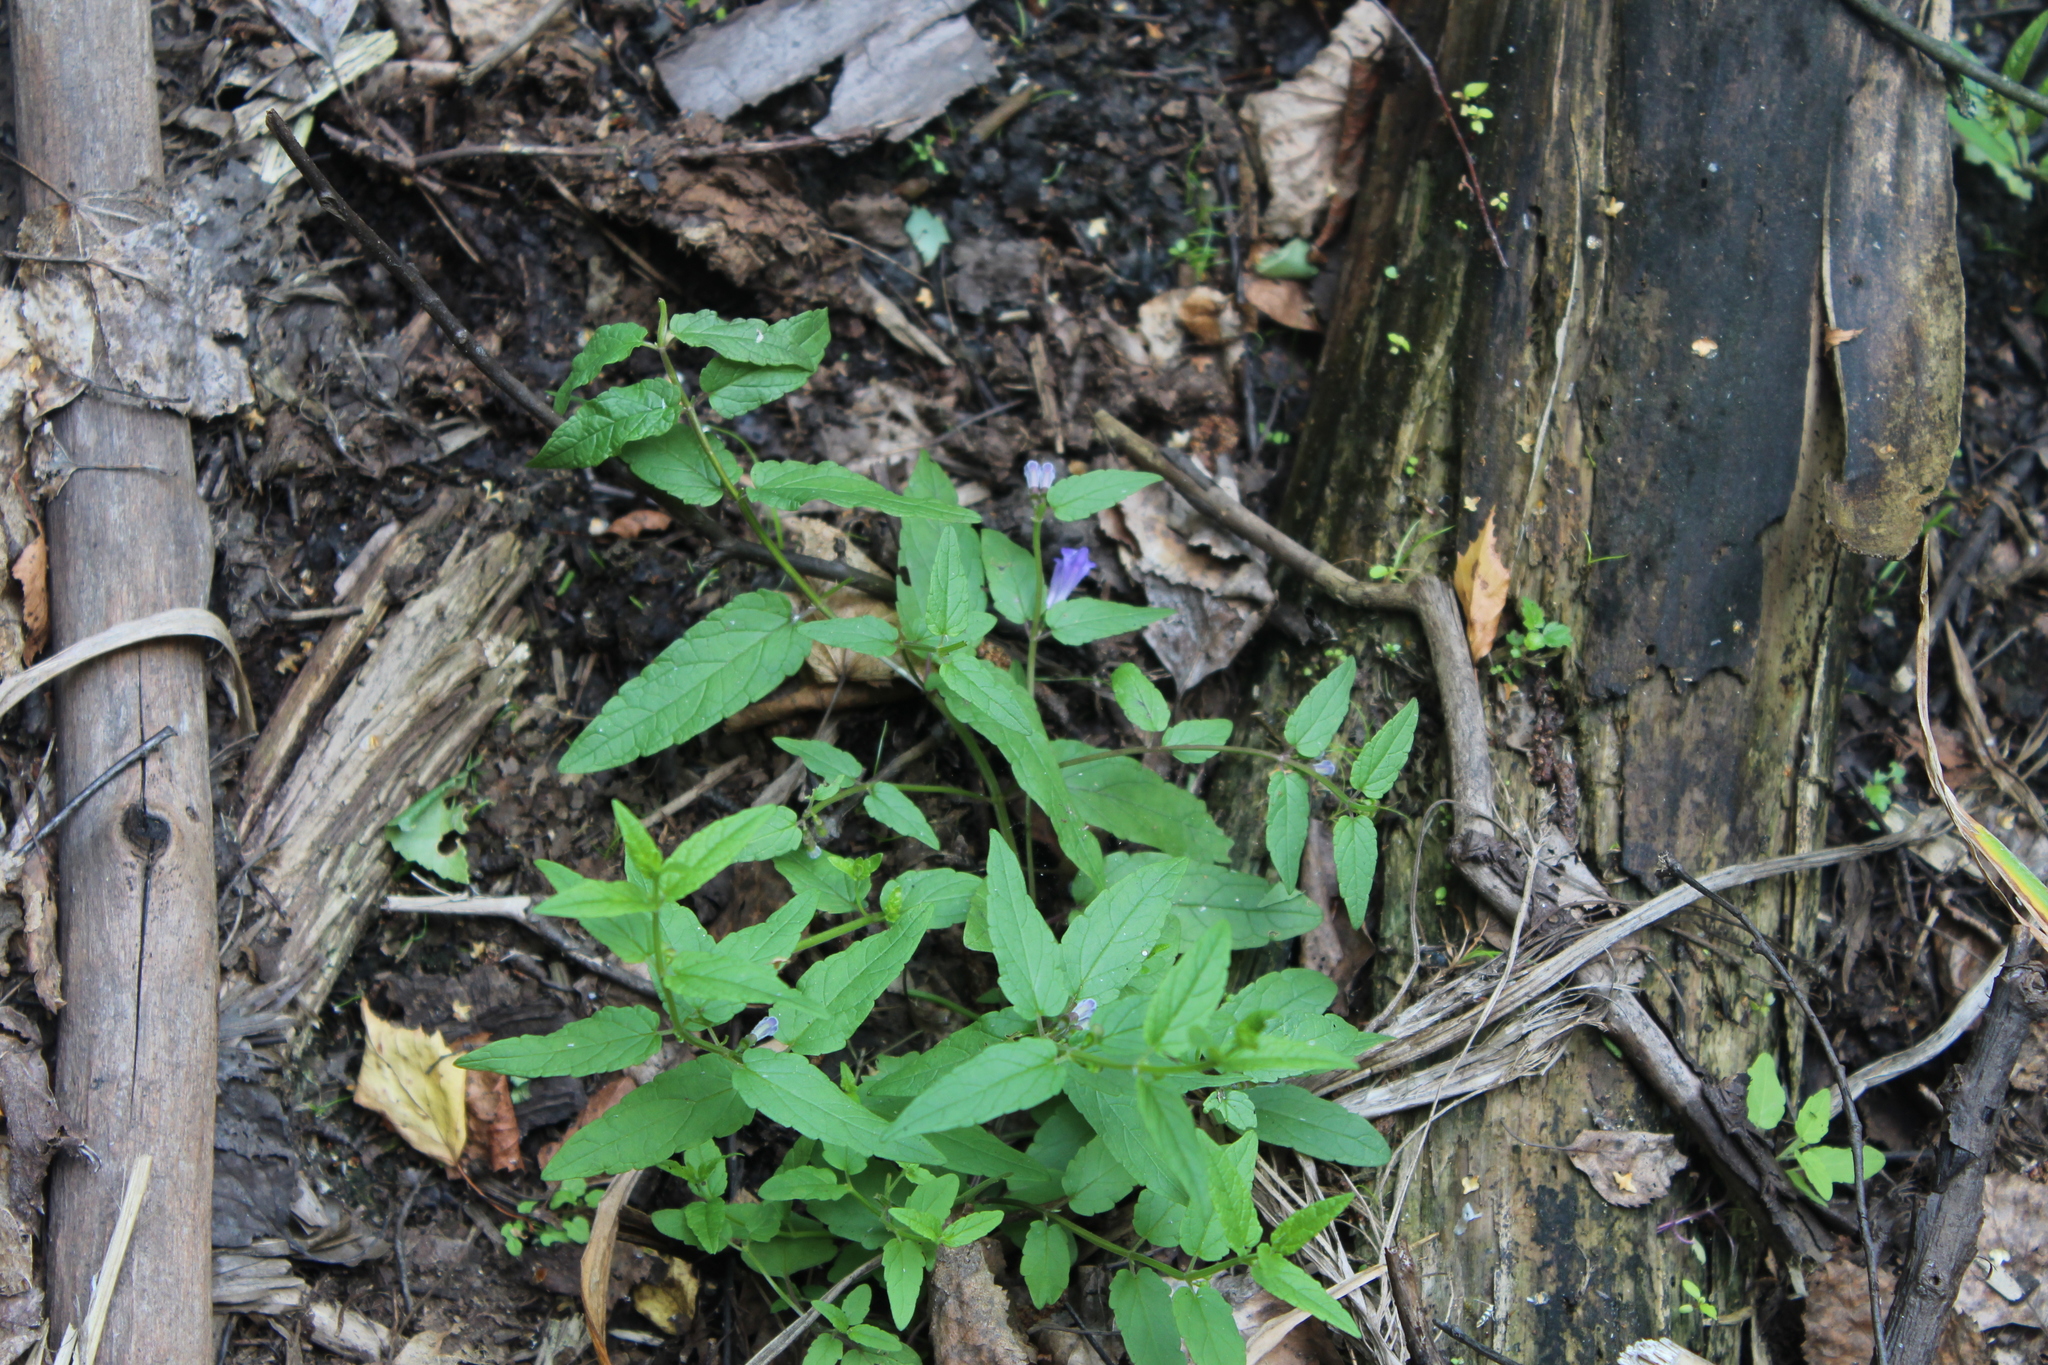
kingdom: Plantae
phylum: Tracheophyta
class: Magnoliopsida
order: Lamiales
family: Lamiaceae
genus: Scutellaria
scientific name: Scutellaria galericulata
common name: Skullcap
